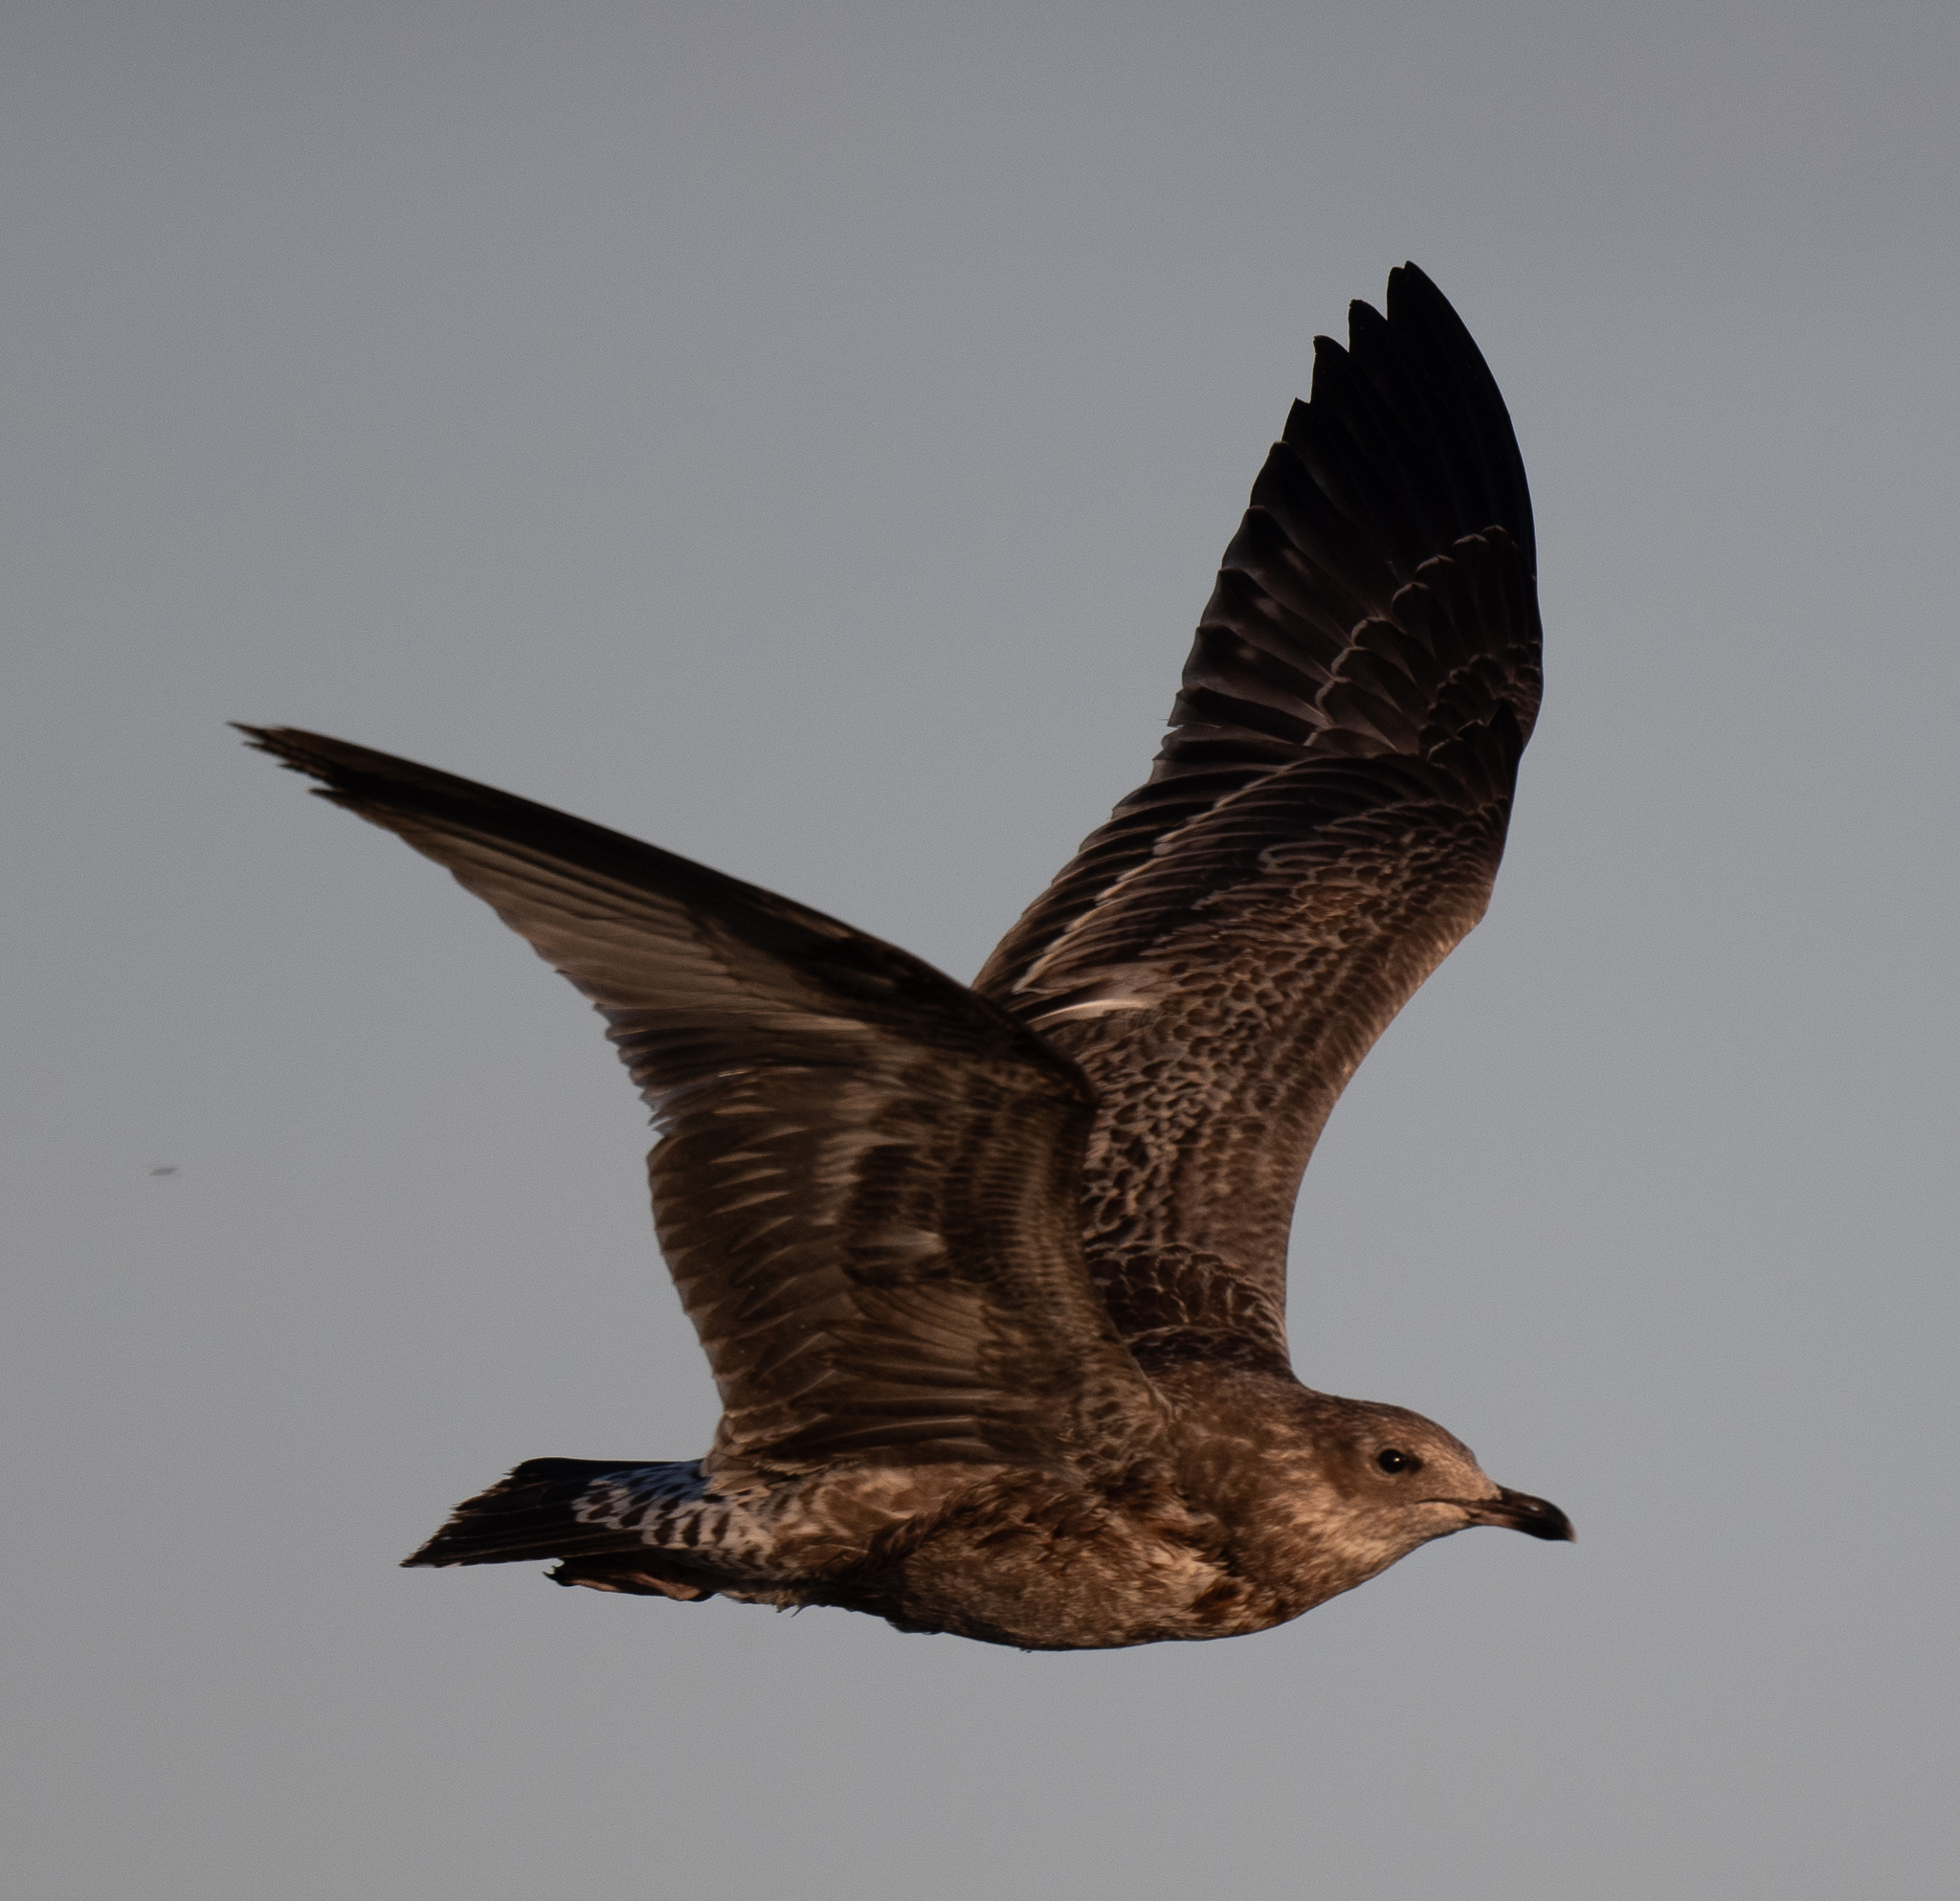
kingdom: Animalia
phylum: Chordata
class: Aves
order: Charadriiformes
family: Laridae
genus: Larus
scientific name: Larus californicus
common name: California gull
